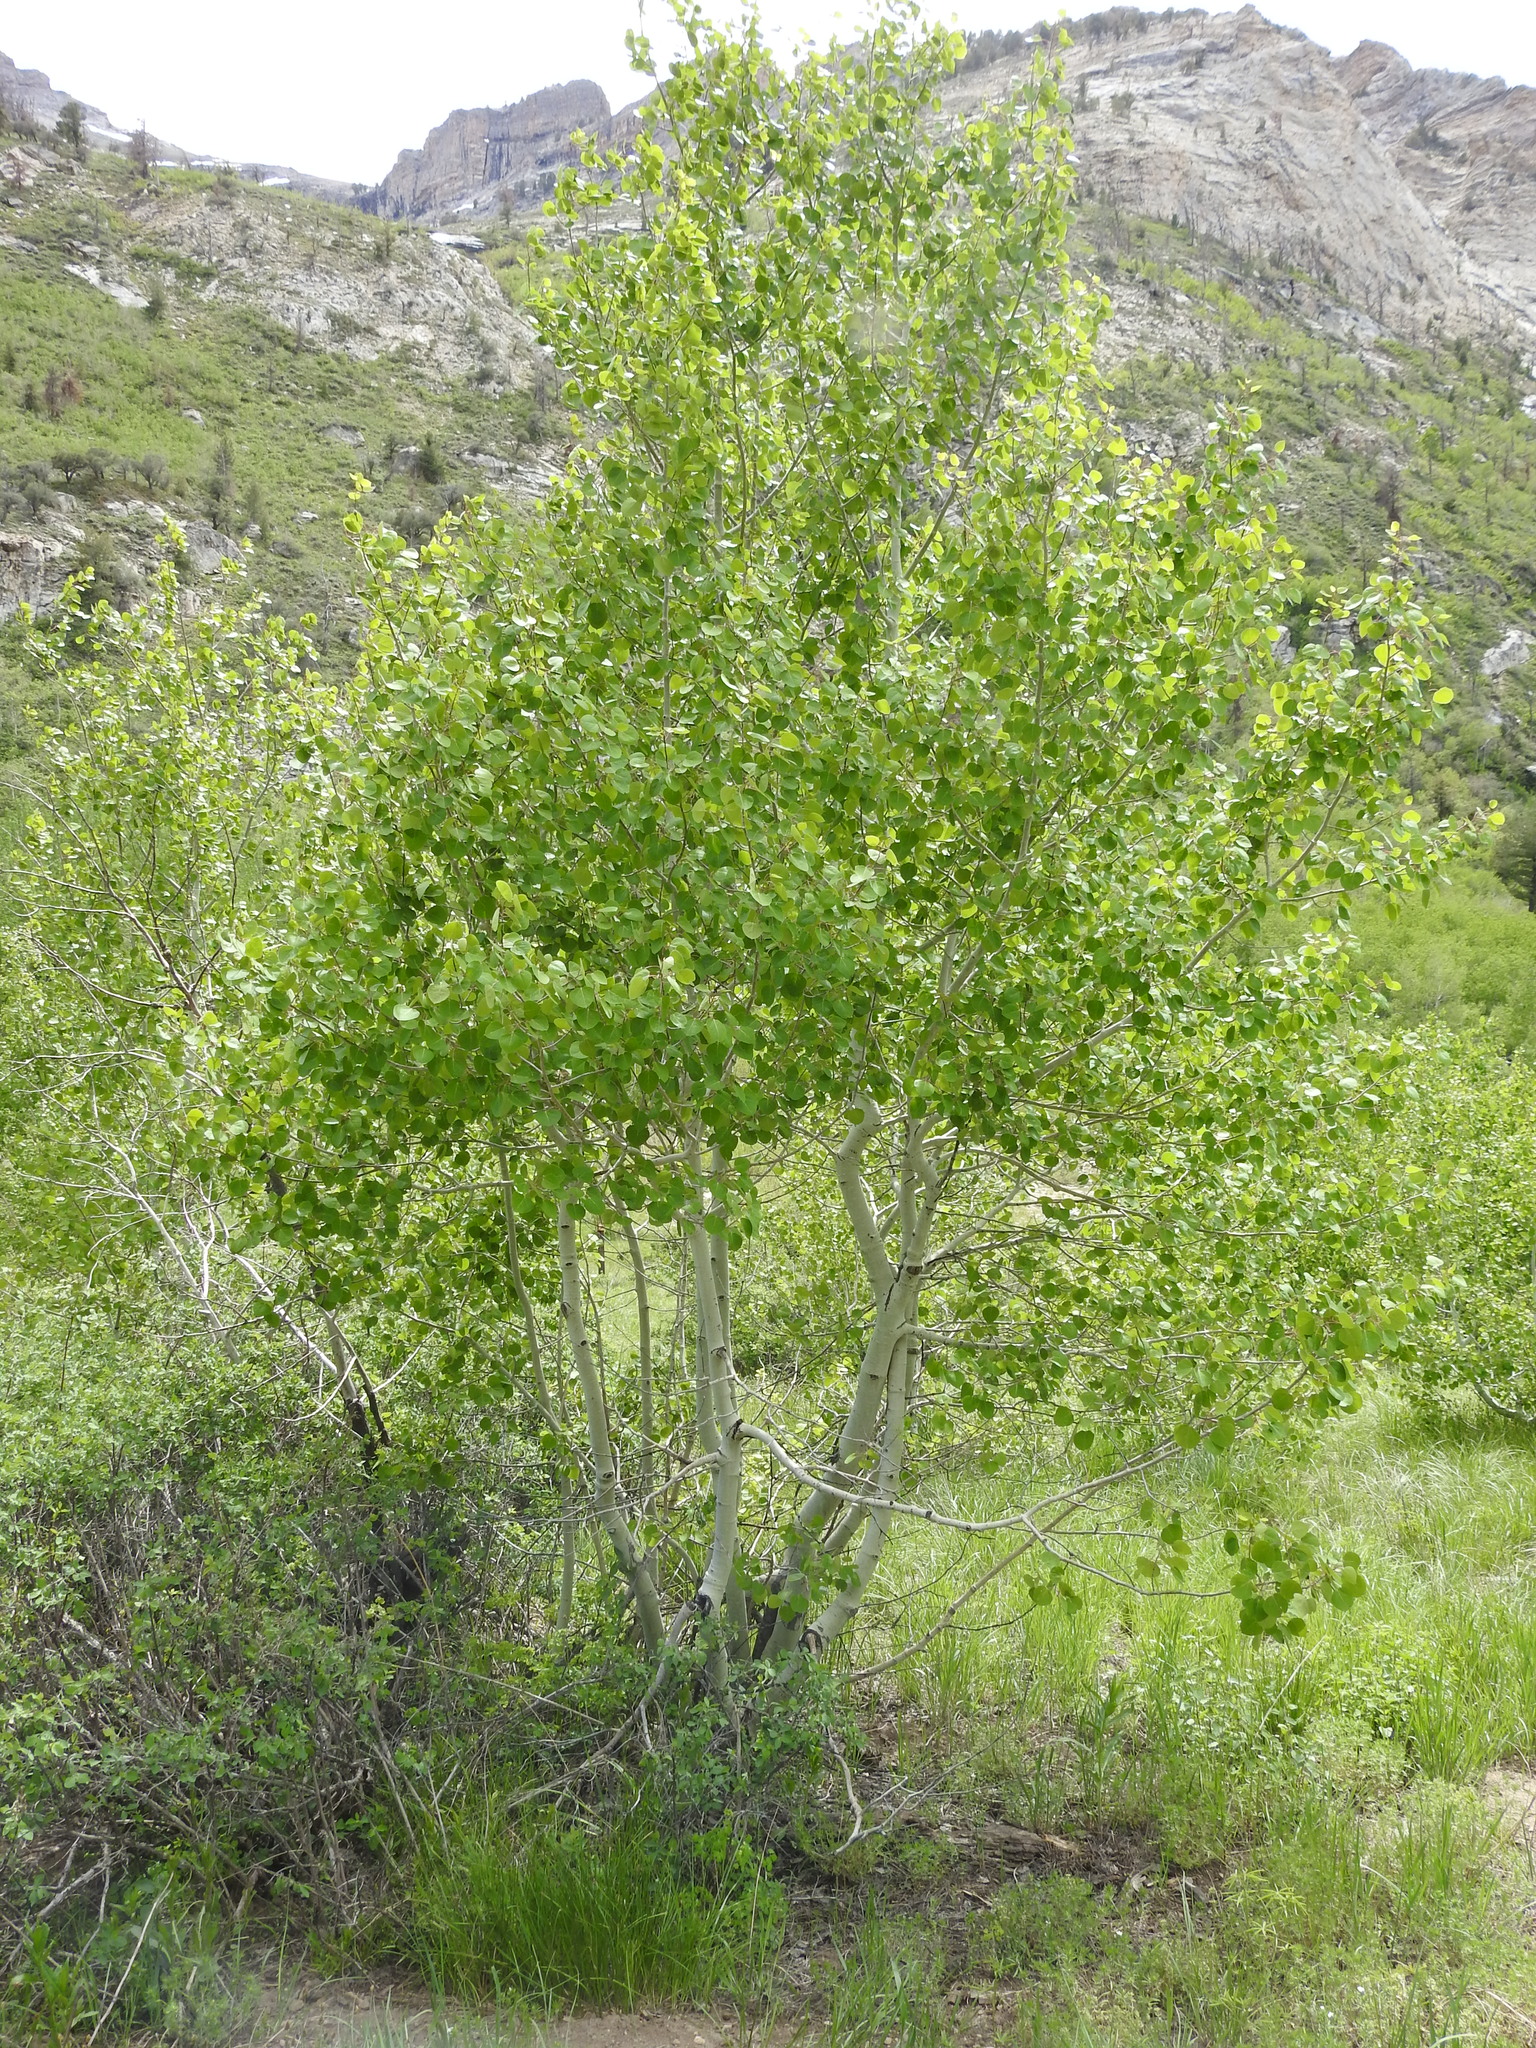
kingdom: Plantae
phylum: Tracheophyta
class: Magnoliopsida
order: Malpighiales
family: Salicaceae
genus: Populus
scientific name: Populus tremuloides
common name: Quaking aspen
